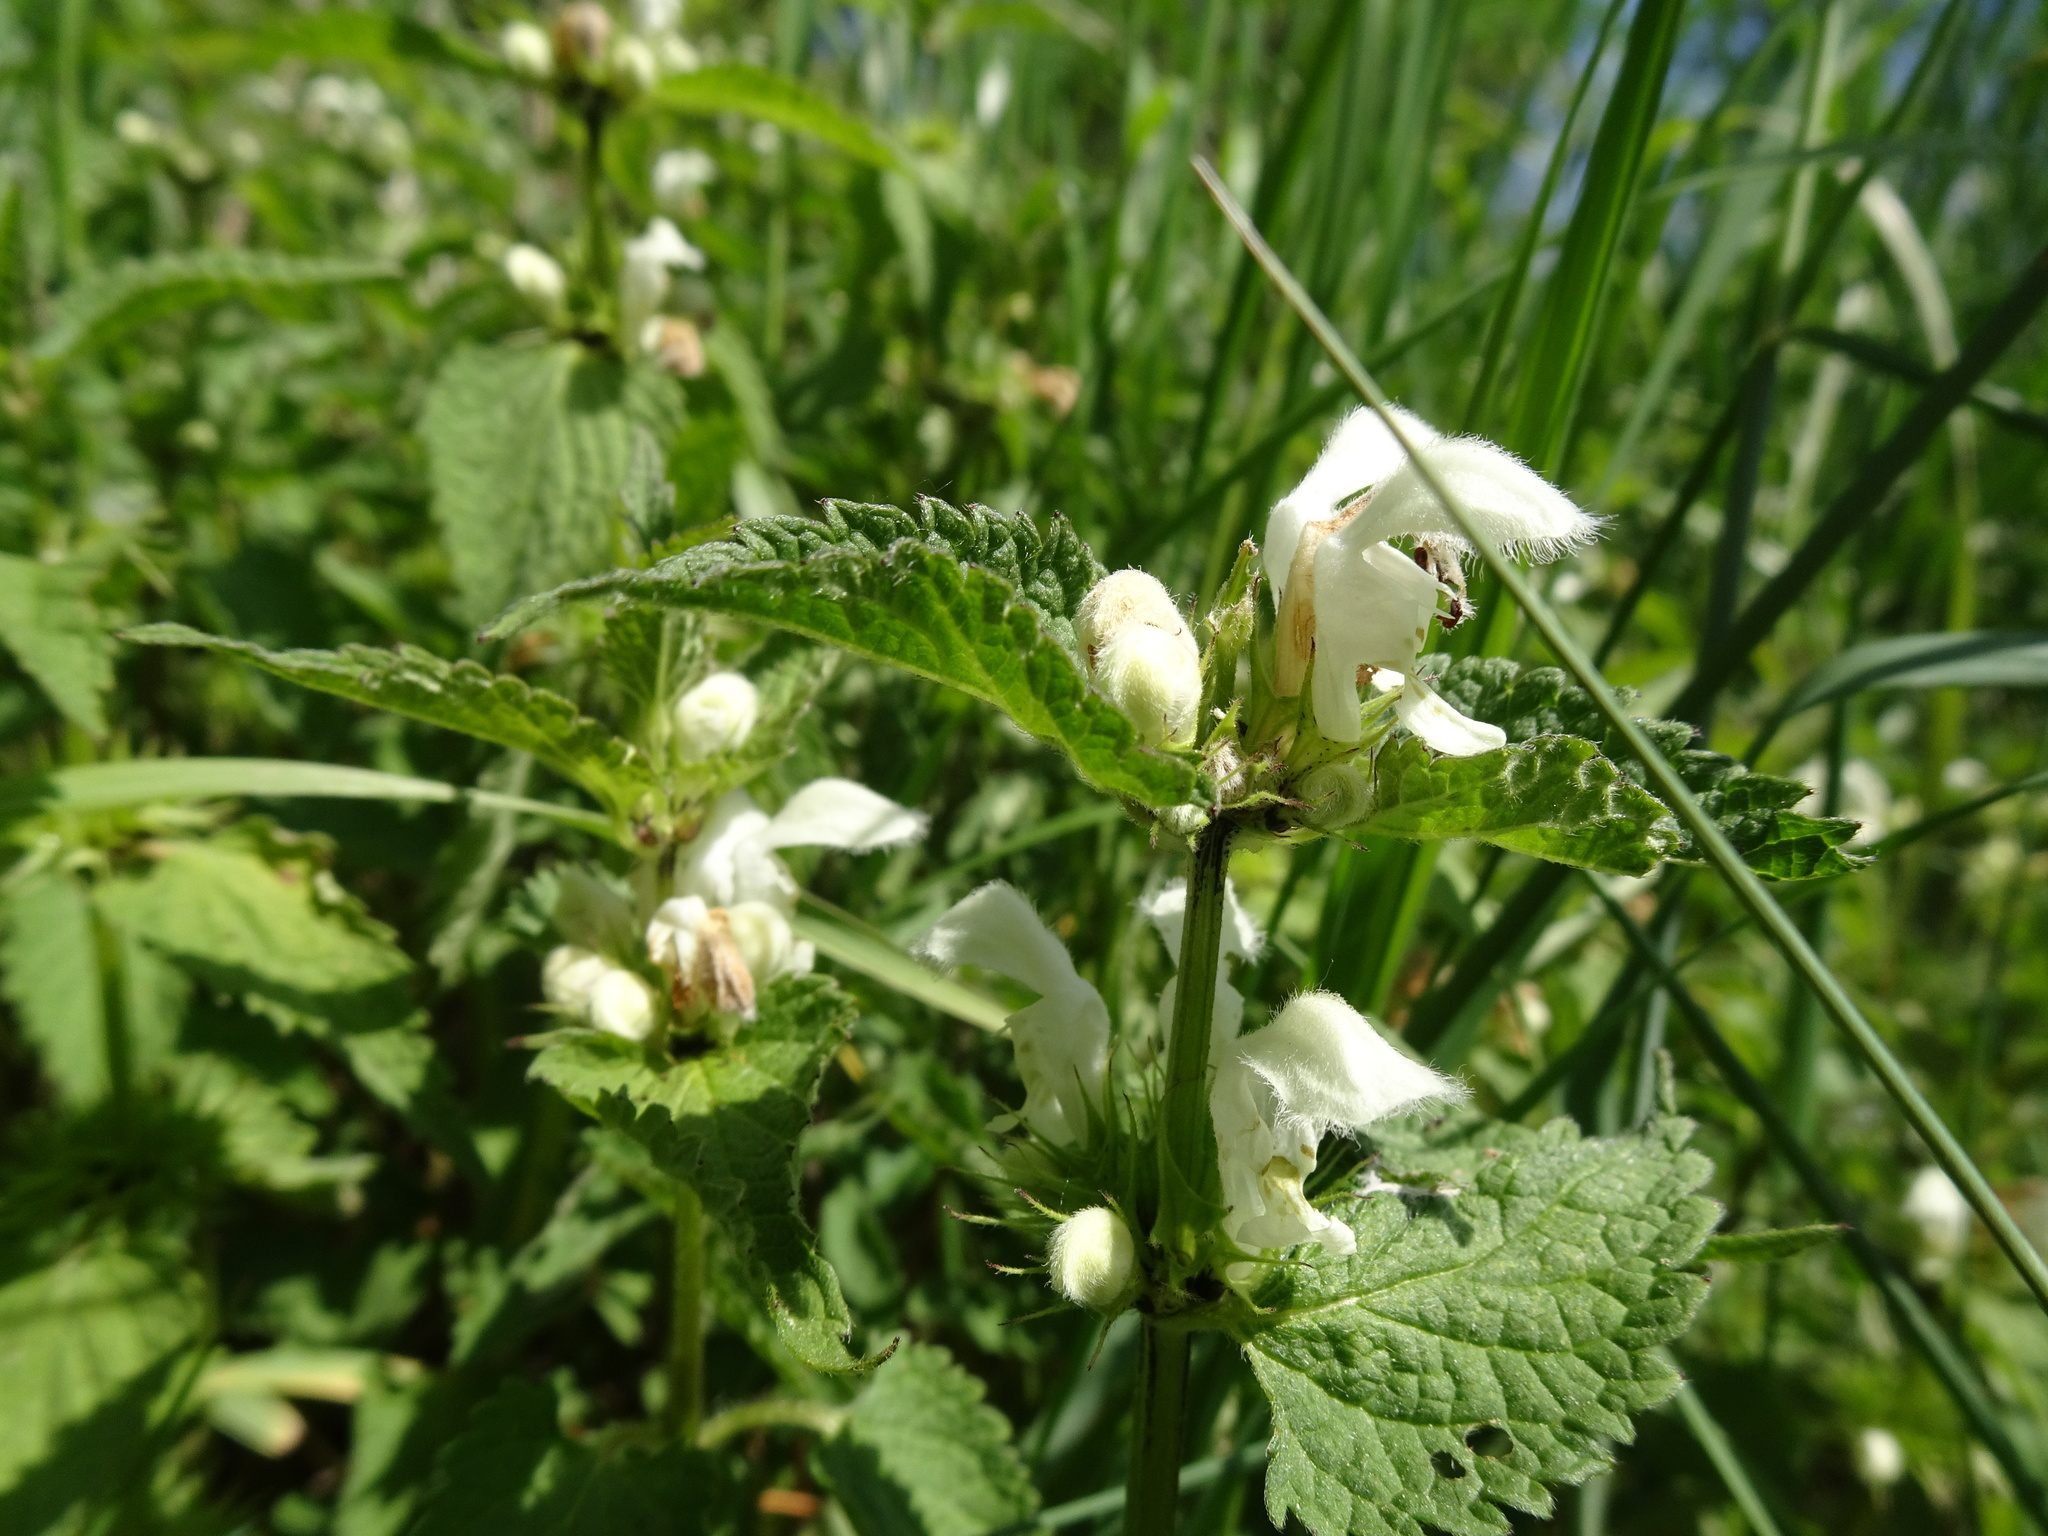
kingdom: Plantae
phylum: Tracheophyta
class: Magnoliopsida
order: Lamiales
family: Lamiaceae
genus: Lamium
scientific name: Lamium album
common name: White dead-nettle
